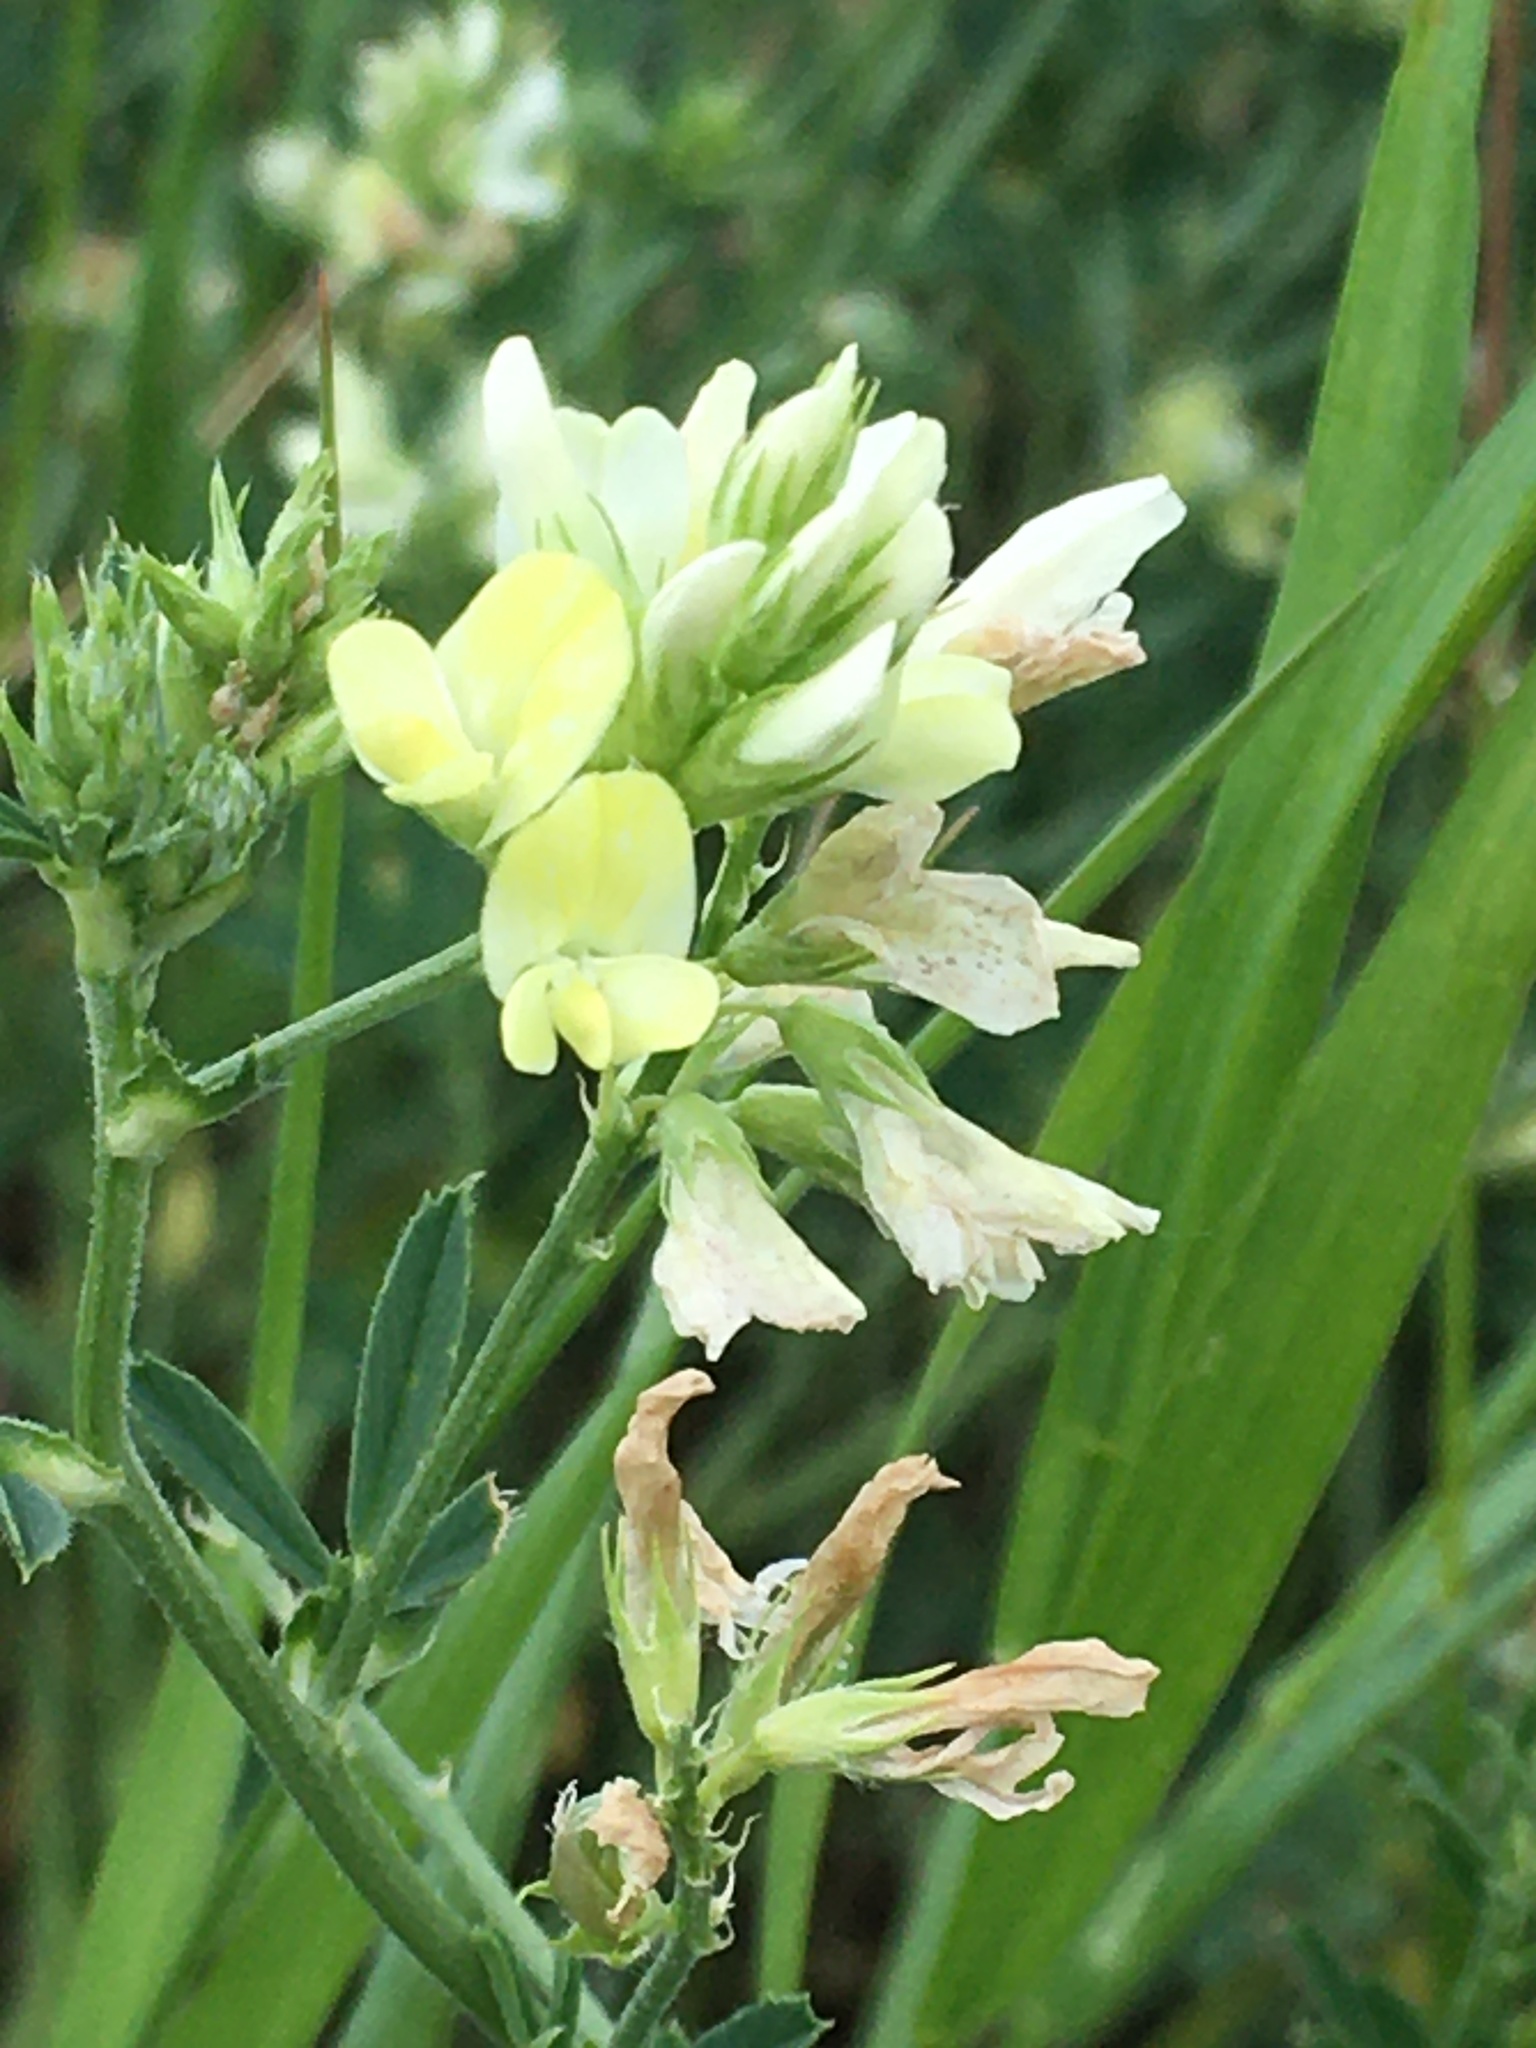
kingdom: Plantae
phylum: Tracheophyta
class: Magnoliopsida
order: Fabales
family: Fabaceae
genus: Medicago
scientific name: Medicago varia
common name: Sand lucerne
